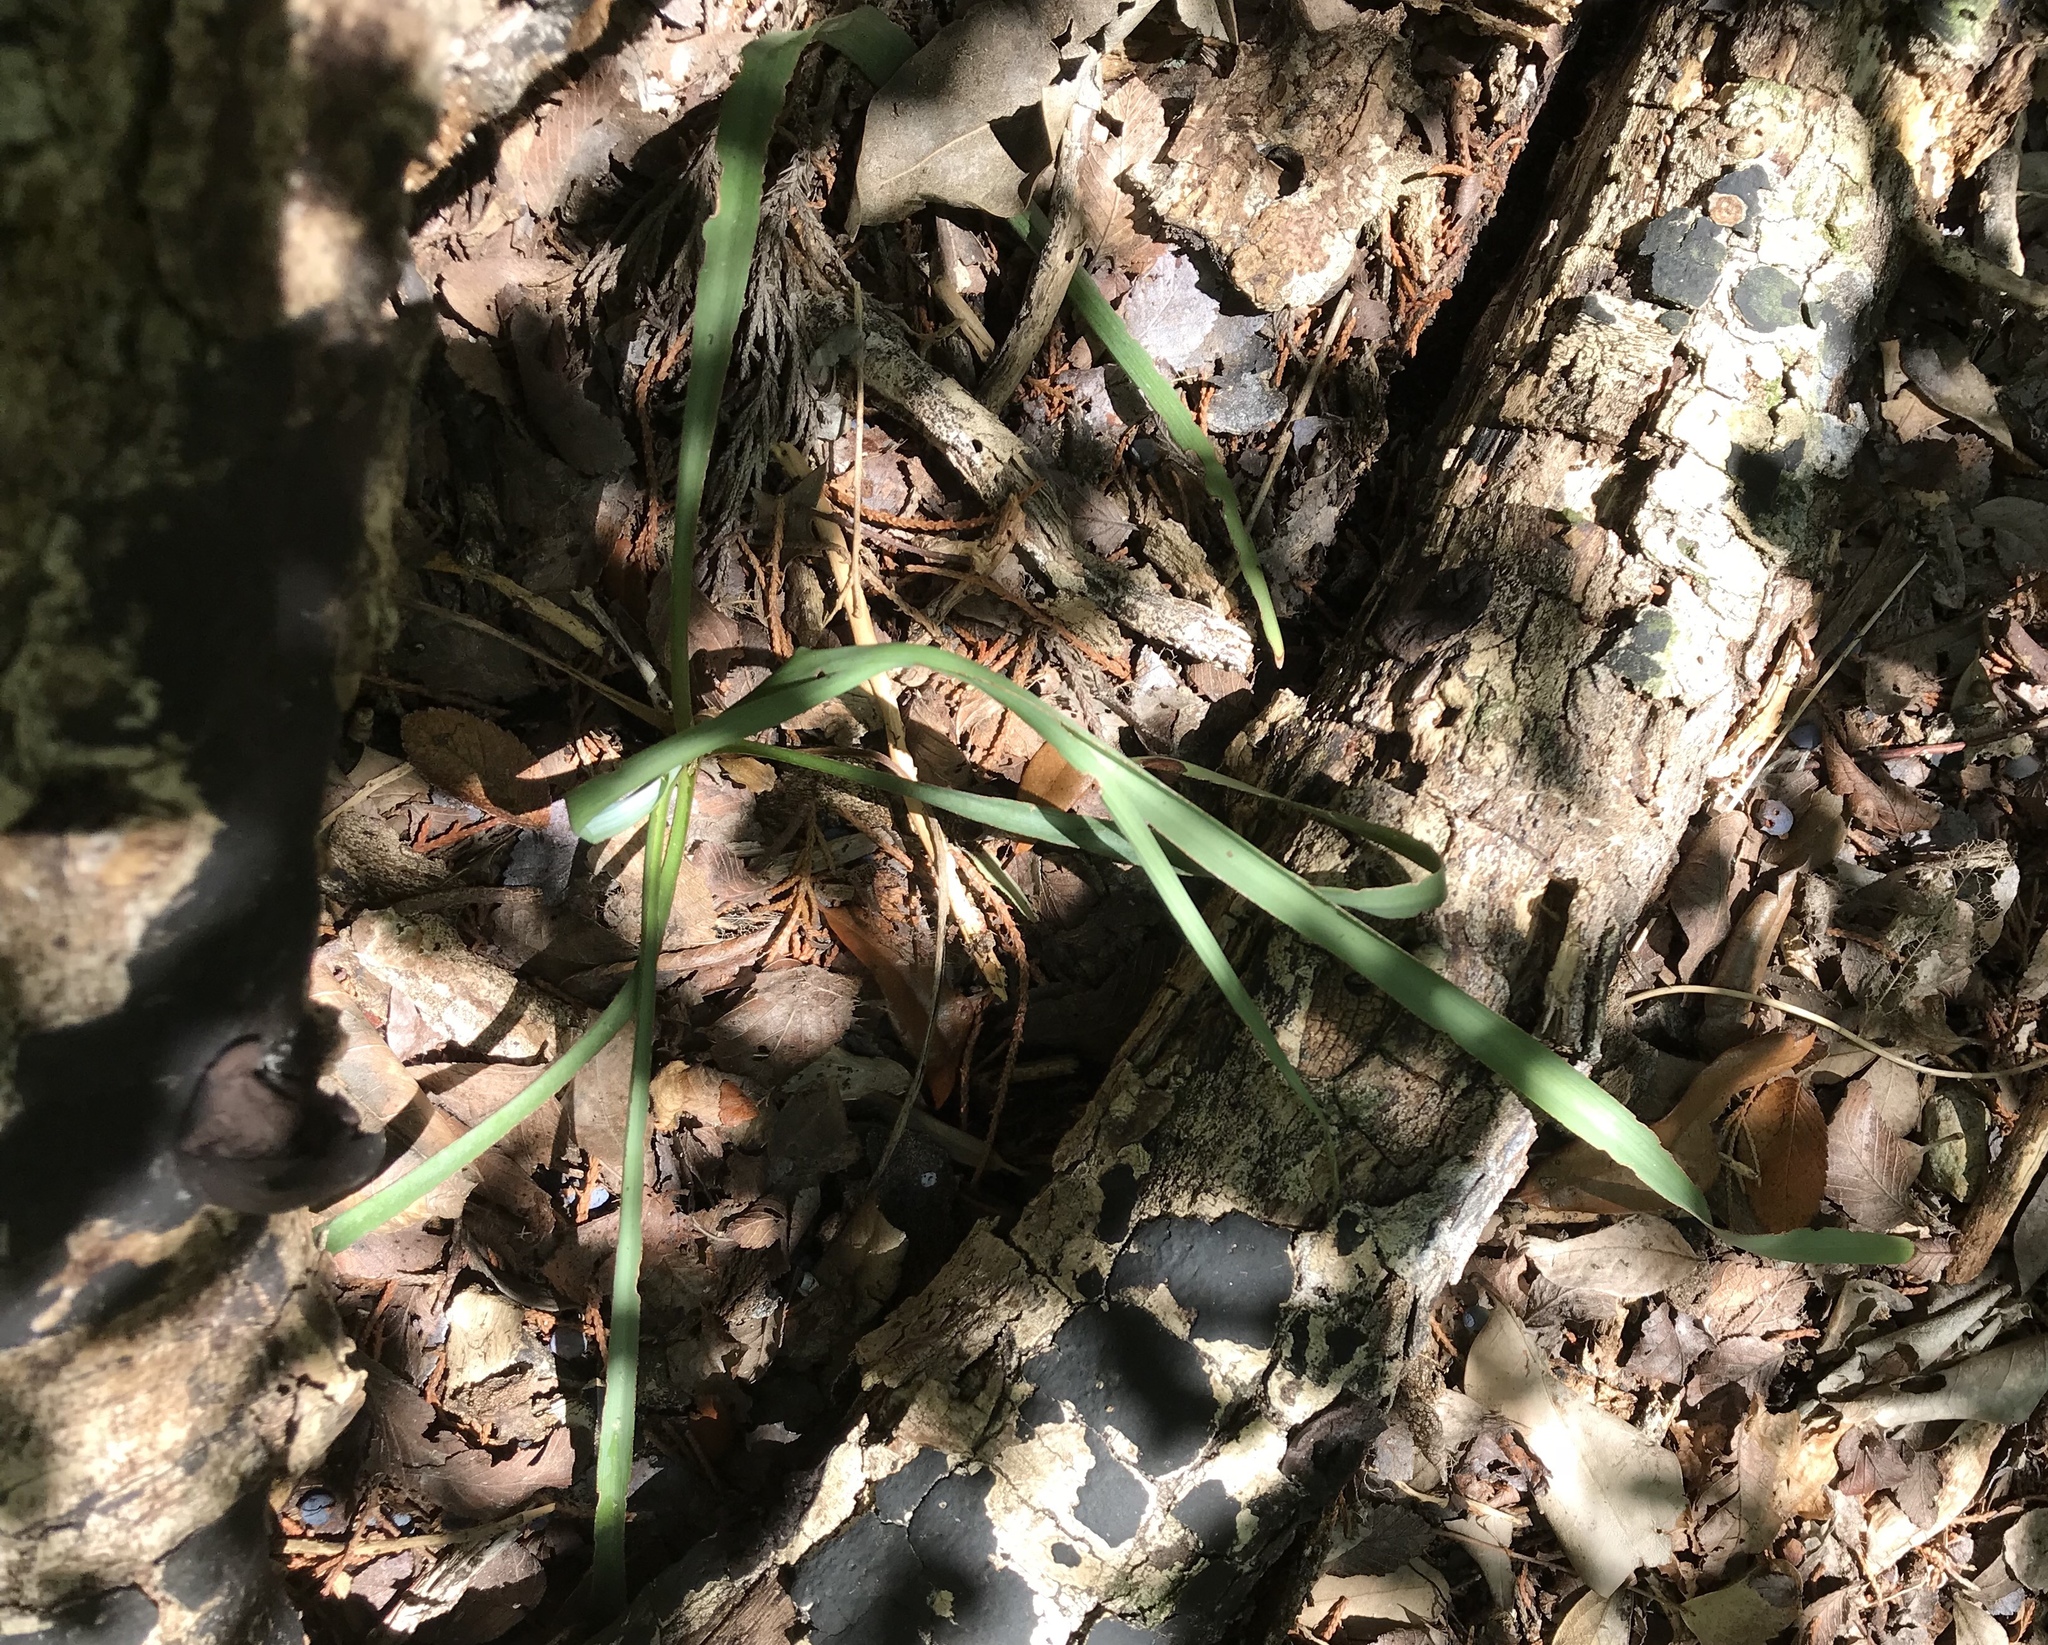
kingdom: Plantae
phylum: Tracheophyta
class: Liliopsida
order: Asparagales
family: Asparagaceae
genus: Yucca
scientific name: Yucca rupicola
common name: Twisted-leaf spanish-dagger
